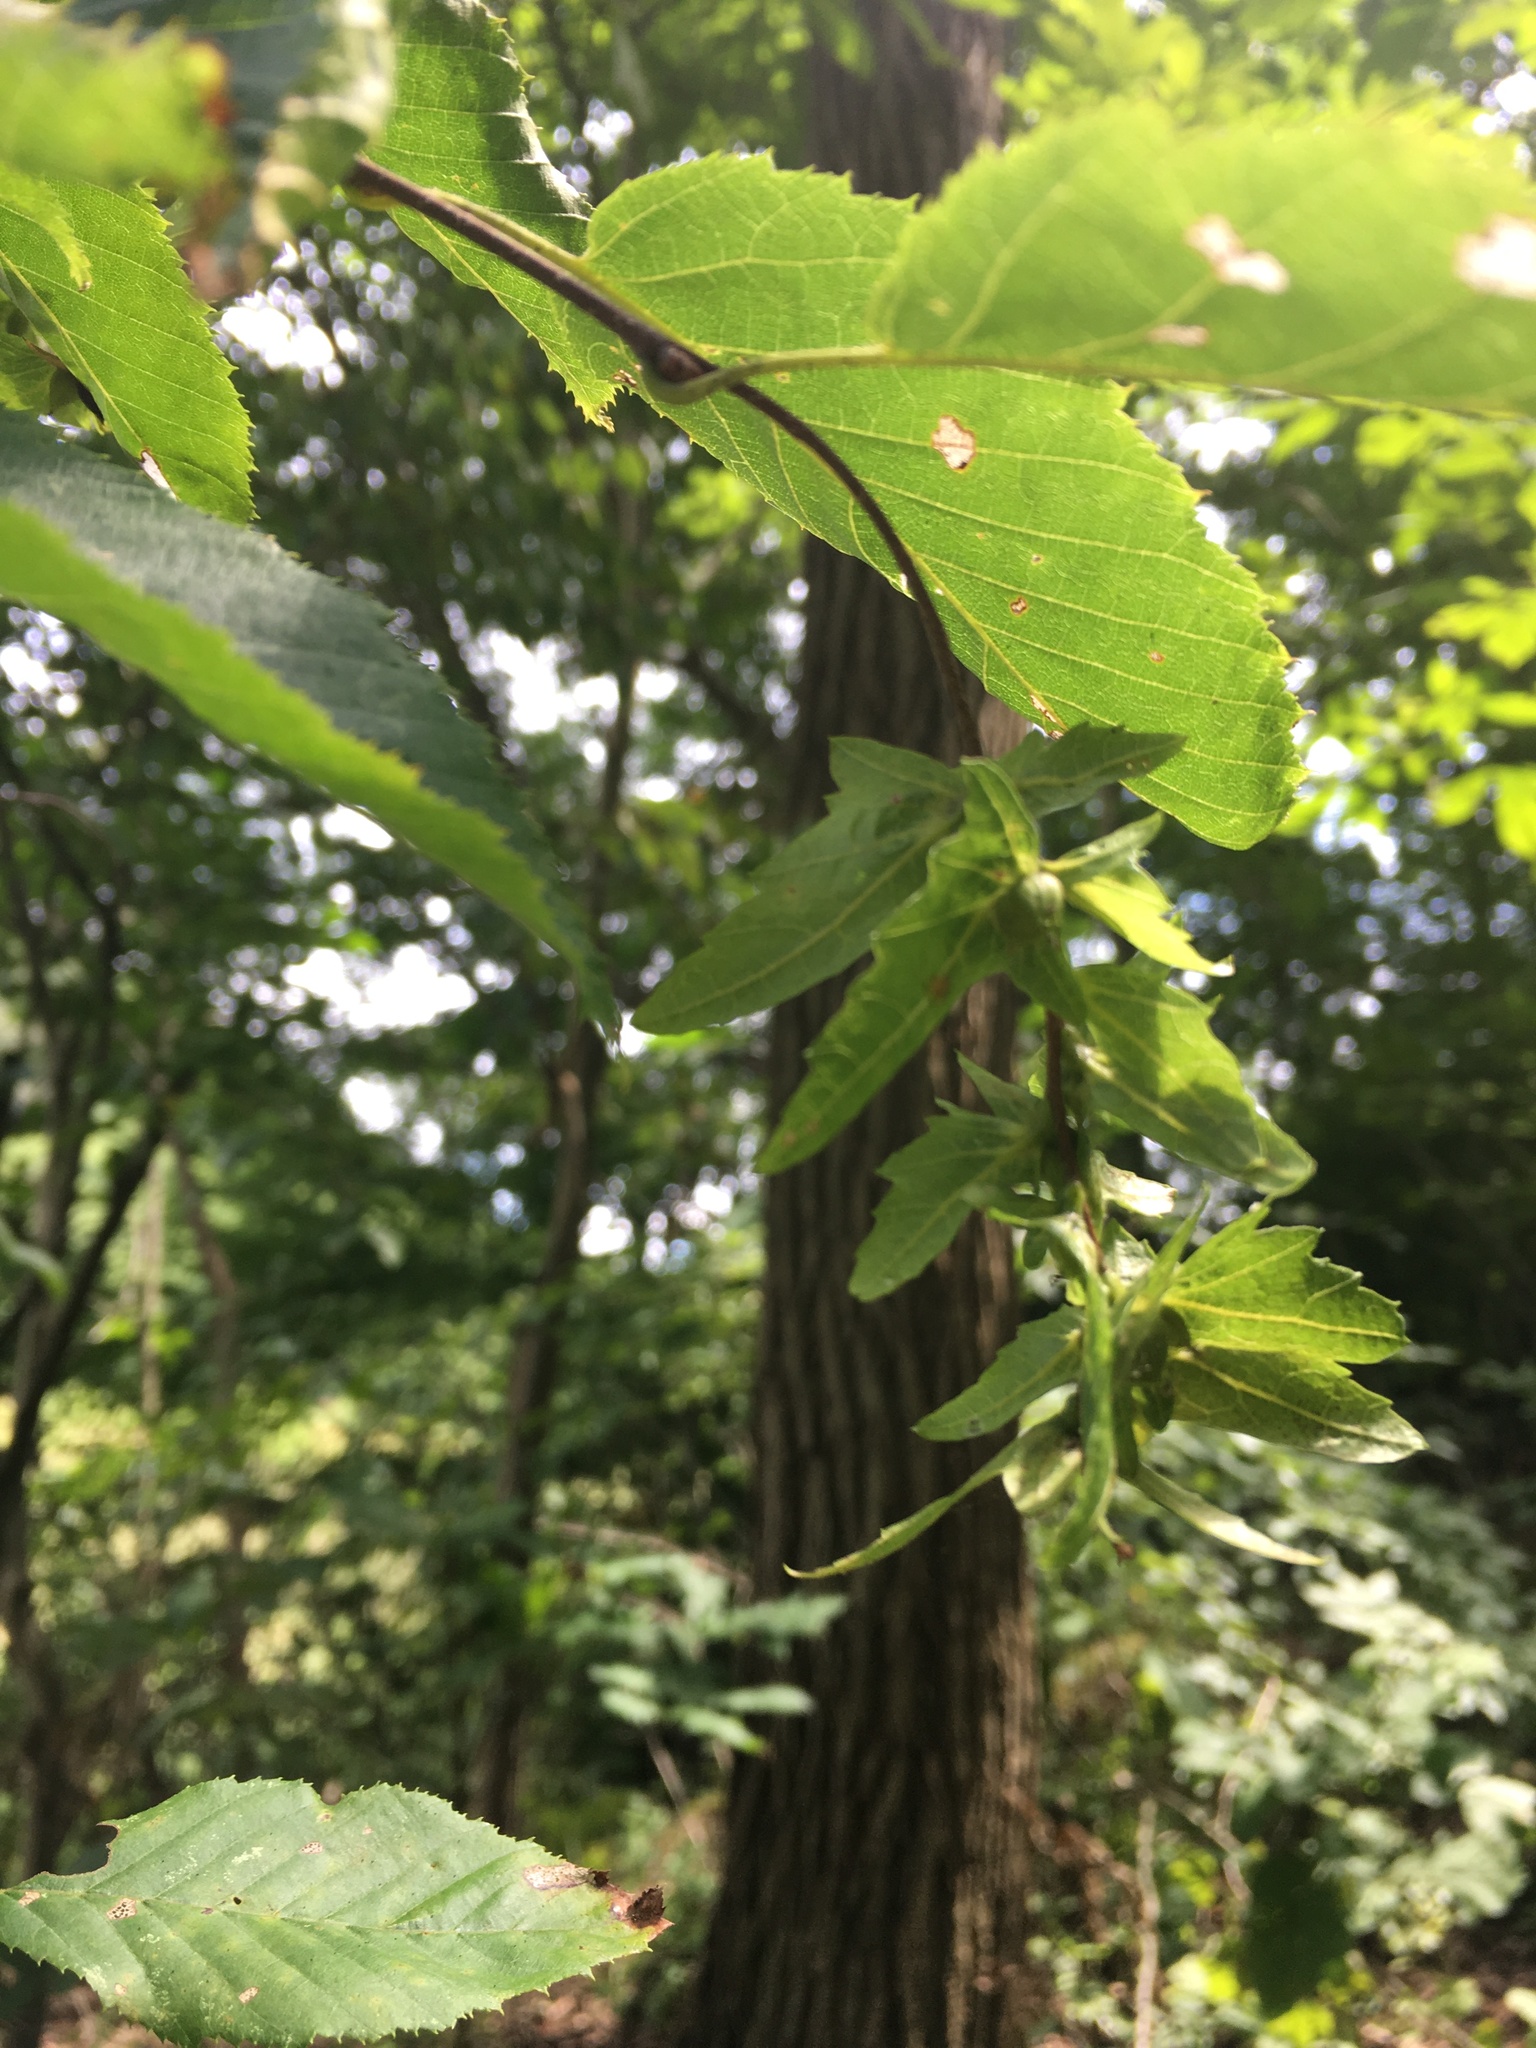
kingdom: Plantae
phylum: Tracheophyta
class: Magnoliopsida
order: Fagales
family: Betulaceae
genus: Carpinus
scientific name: Carpinus caroliniana
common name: American hornbeam
